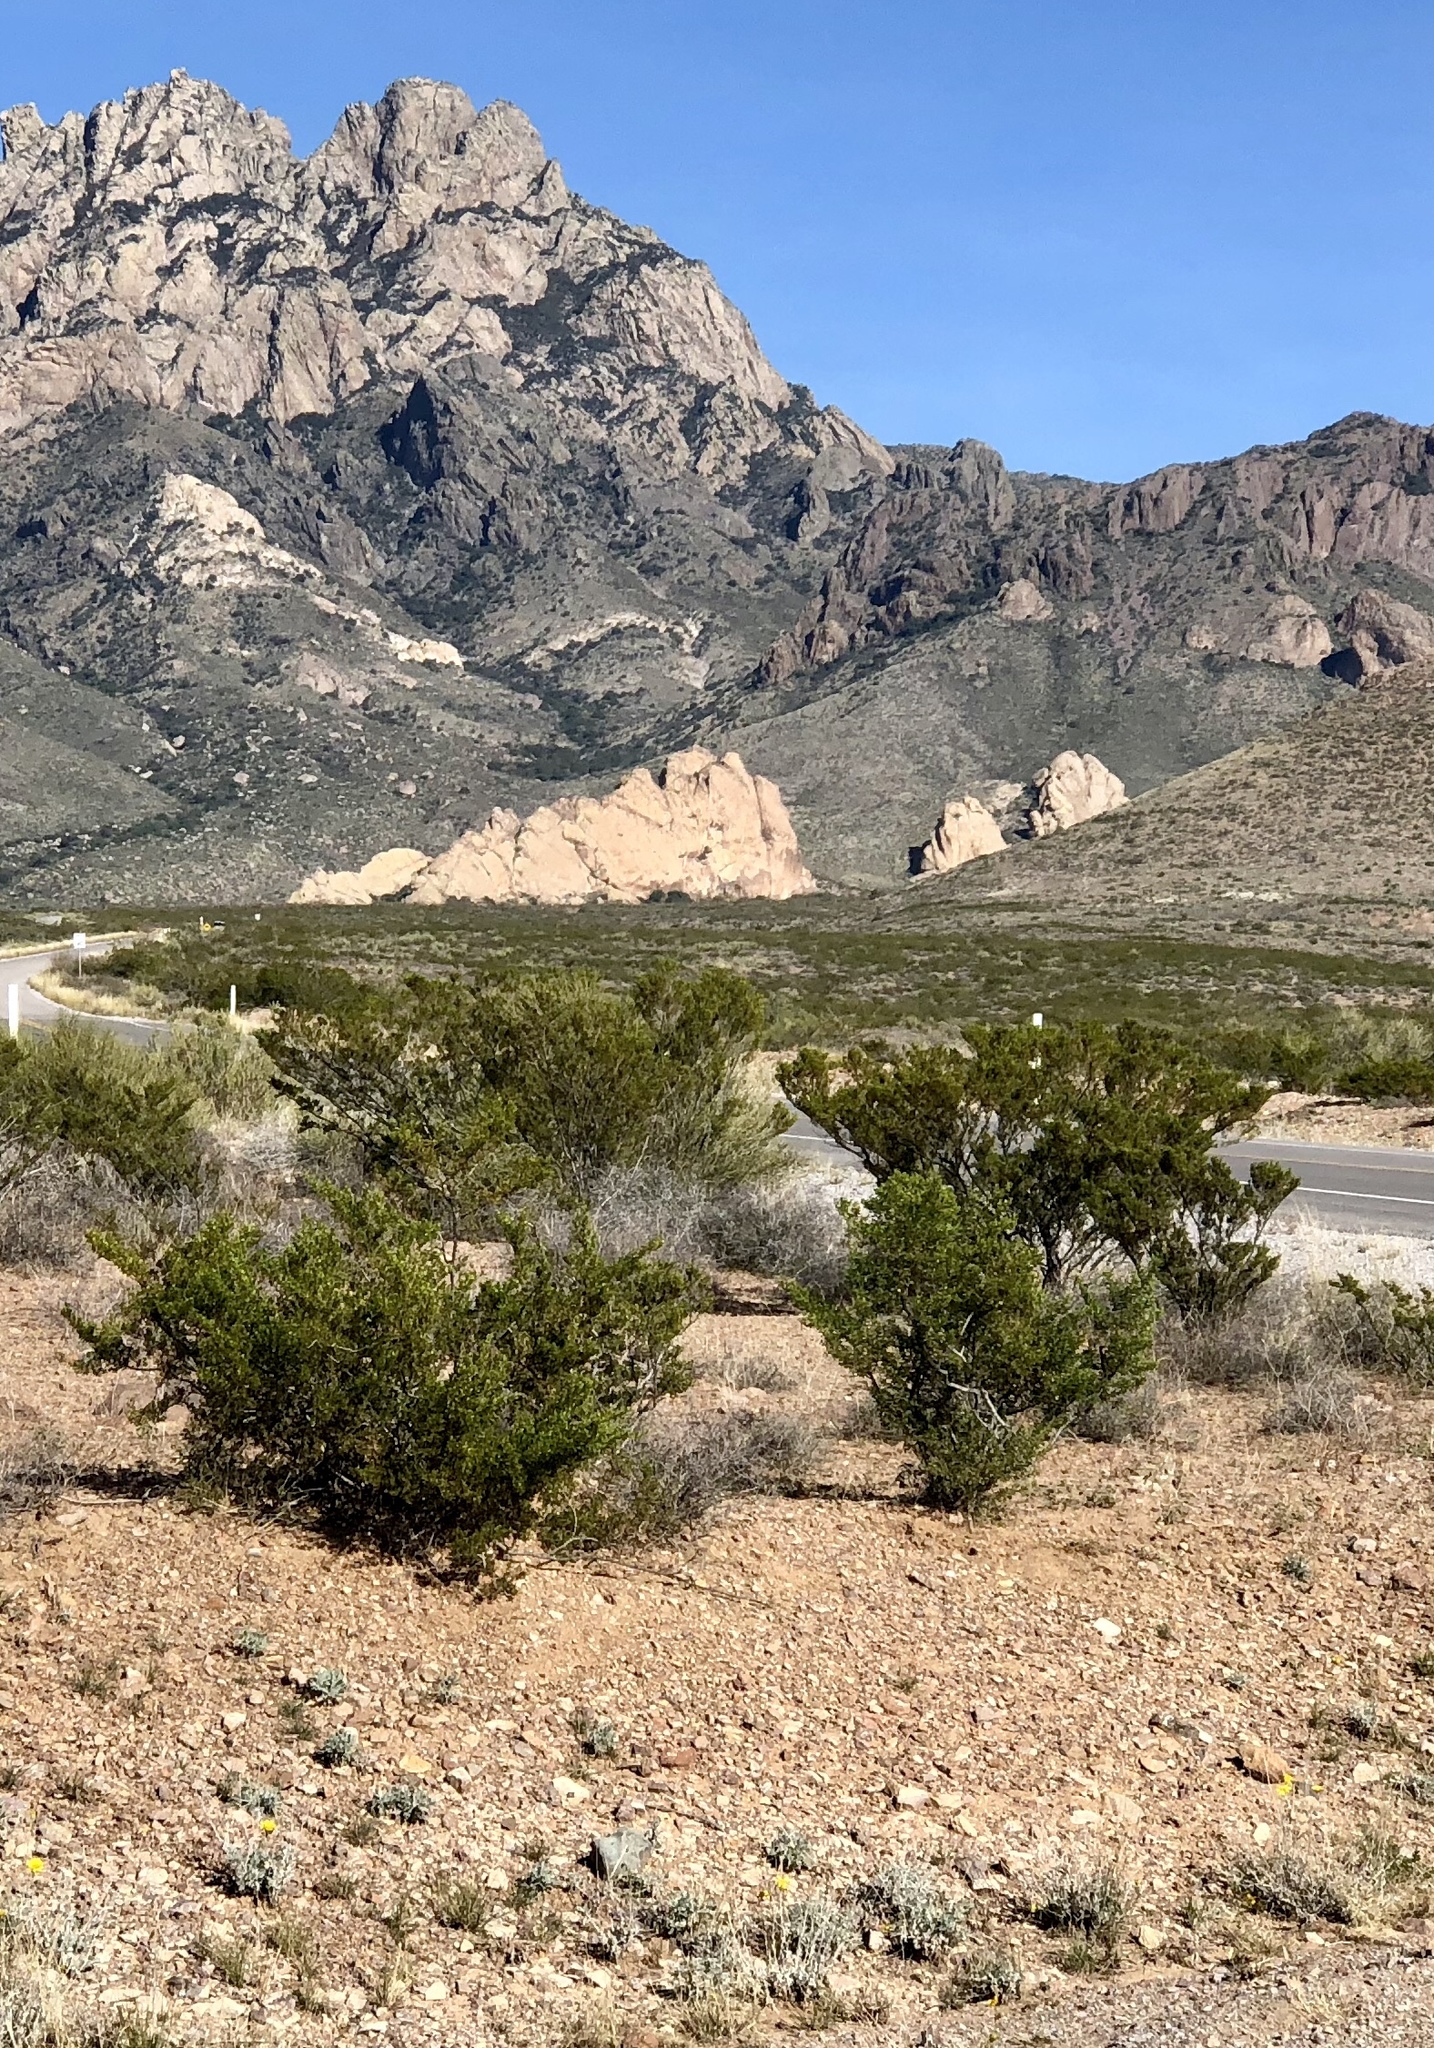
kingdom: Plantae
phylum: Tracheophyta
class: Magnoliopsida
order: Zygophyllales
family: Zygophyllaceae
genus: Larrea
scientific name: Larrea tridentata
